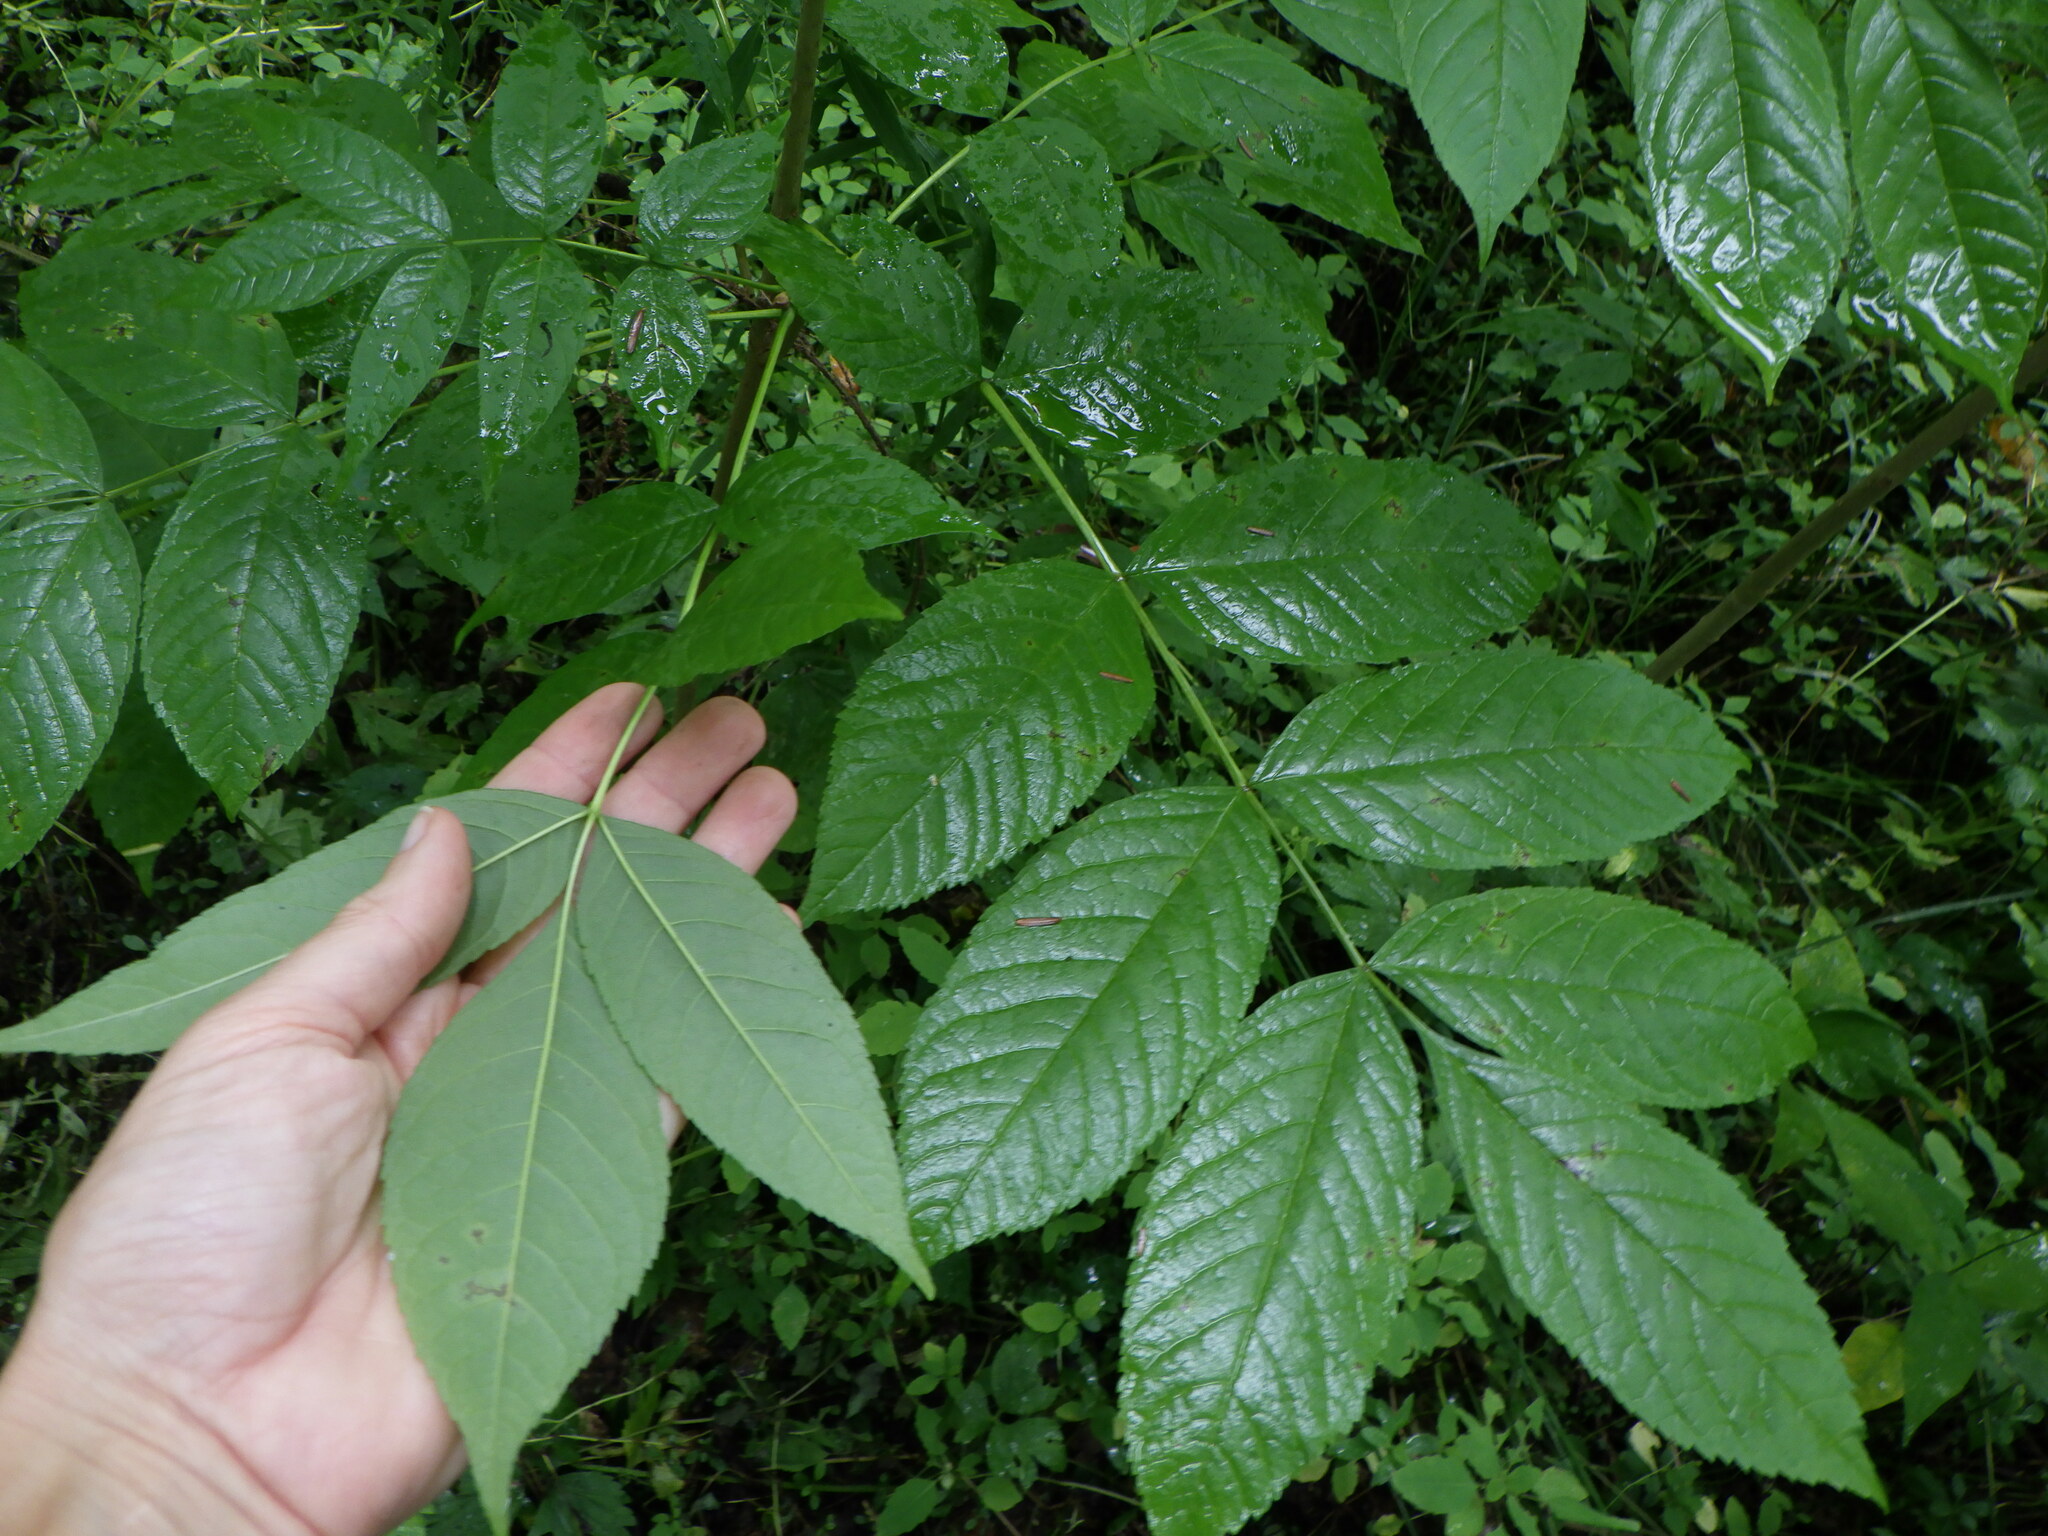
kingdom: Plantae
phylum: Tracheophyta
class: Magnoliopsida
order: Lamiales
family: Oleaceae
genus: Fraxinus
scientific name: Fraxinus nigra
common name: Black ash
